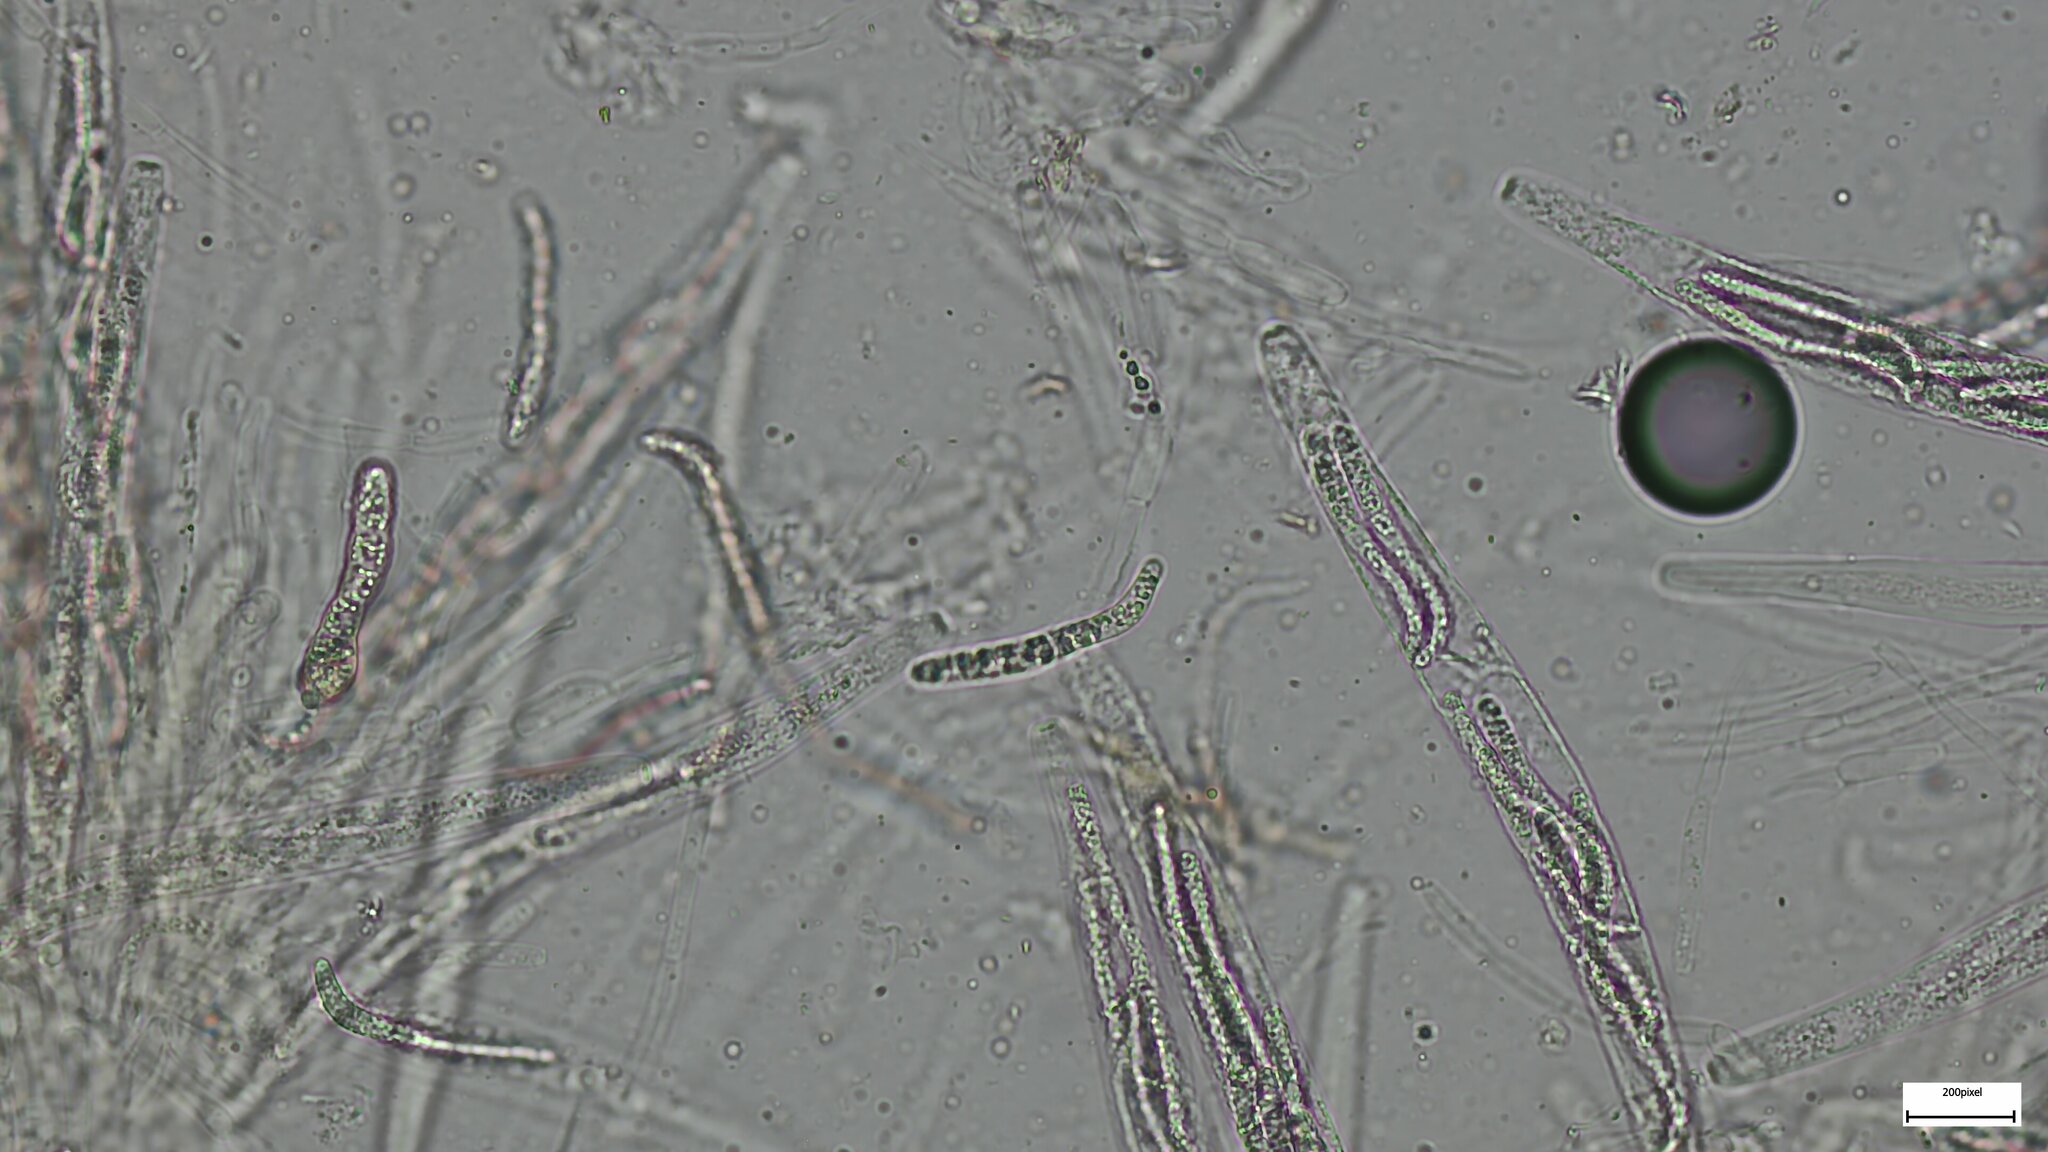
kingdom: Fungi
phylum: Ascomycota
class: Sordariomycetes
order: Sordariales
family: Lasiosphaeriaceae
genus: Lasiosphaeria
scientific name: Lasiosphaeria ovina
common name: Woolly woodwart
